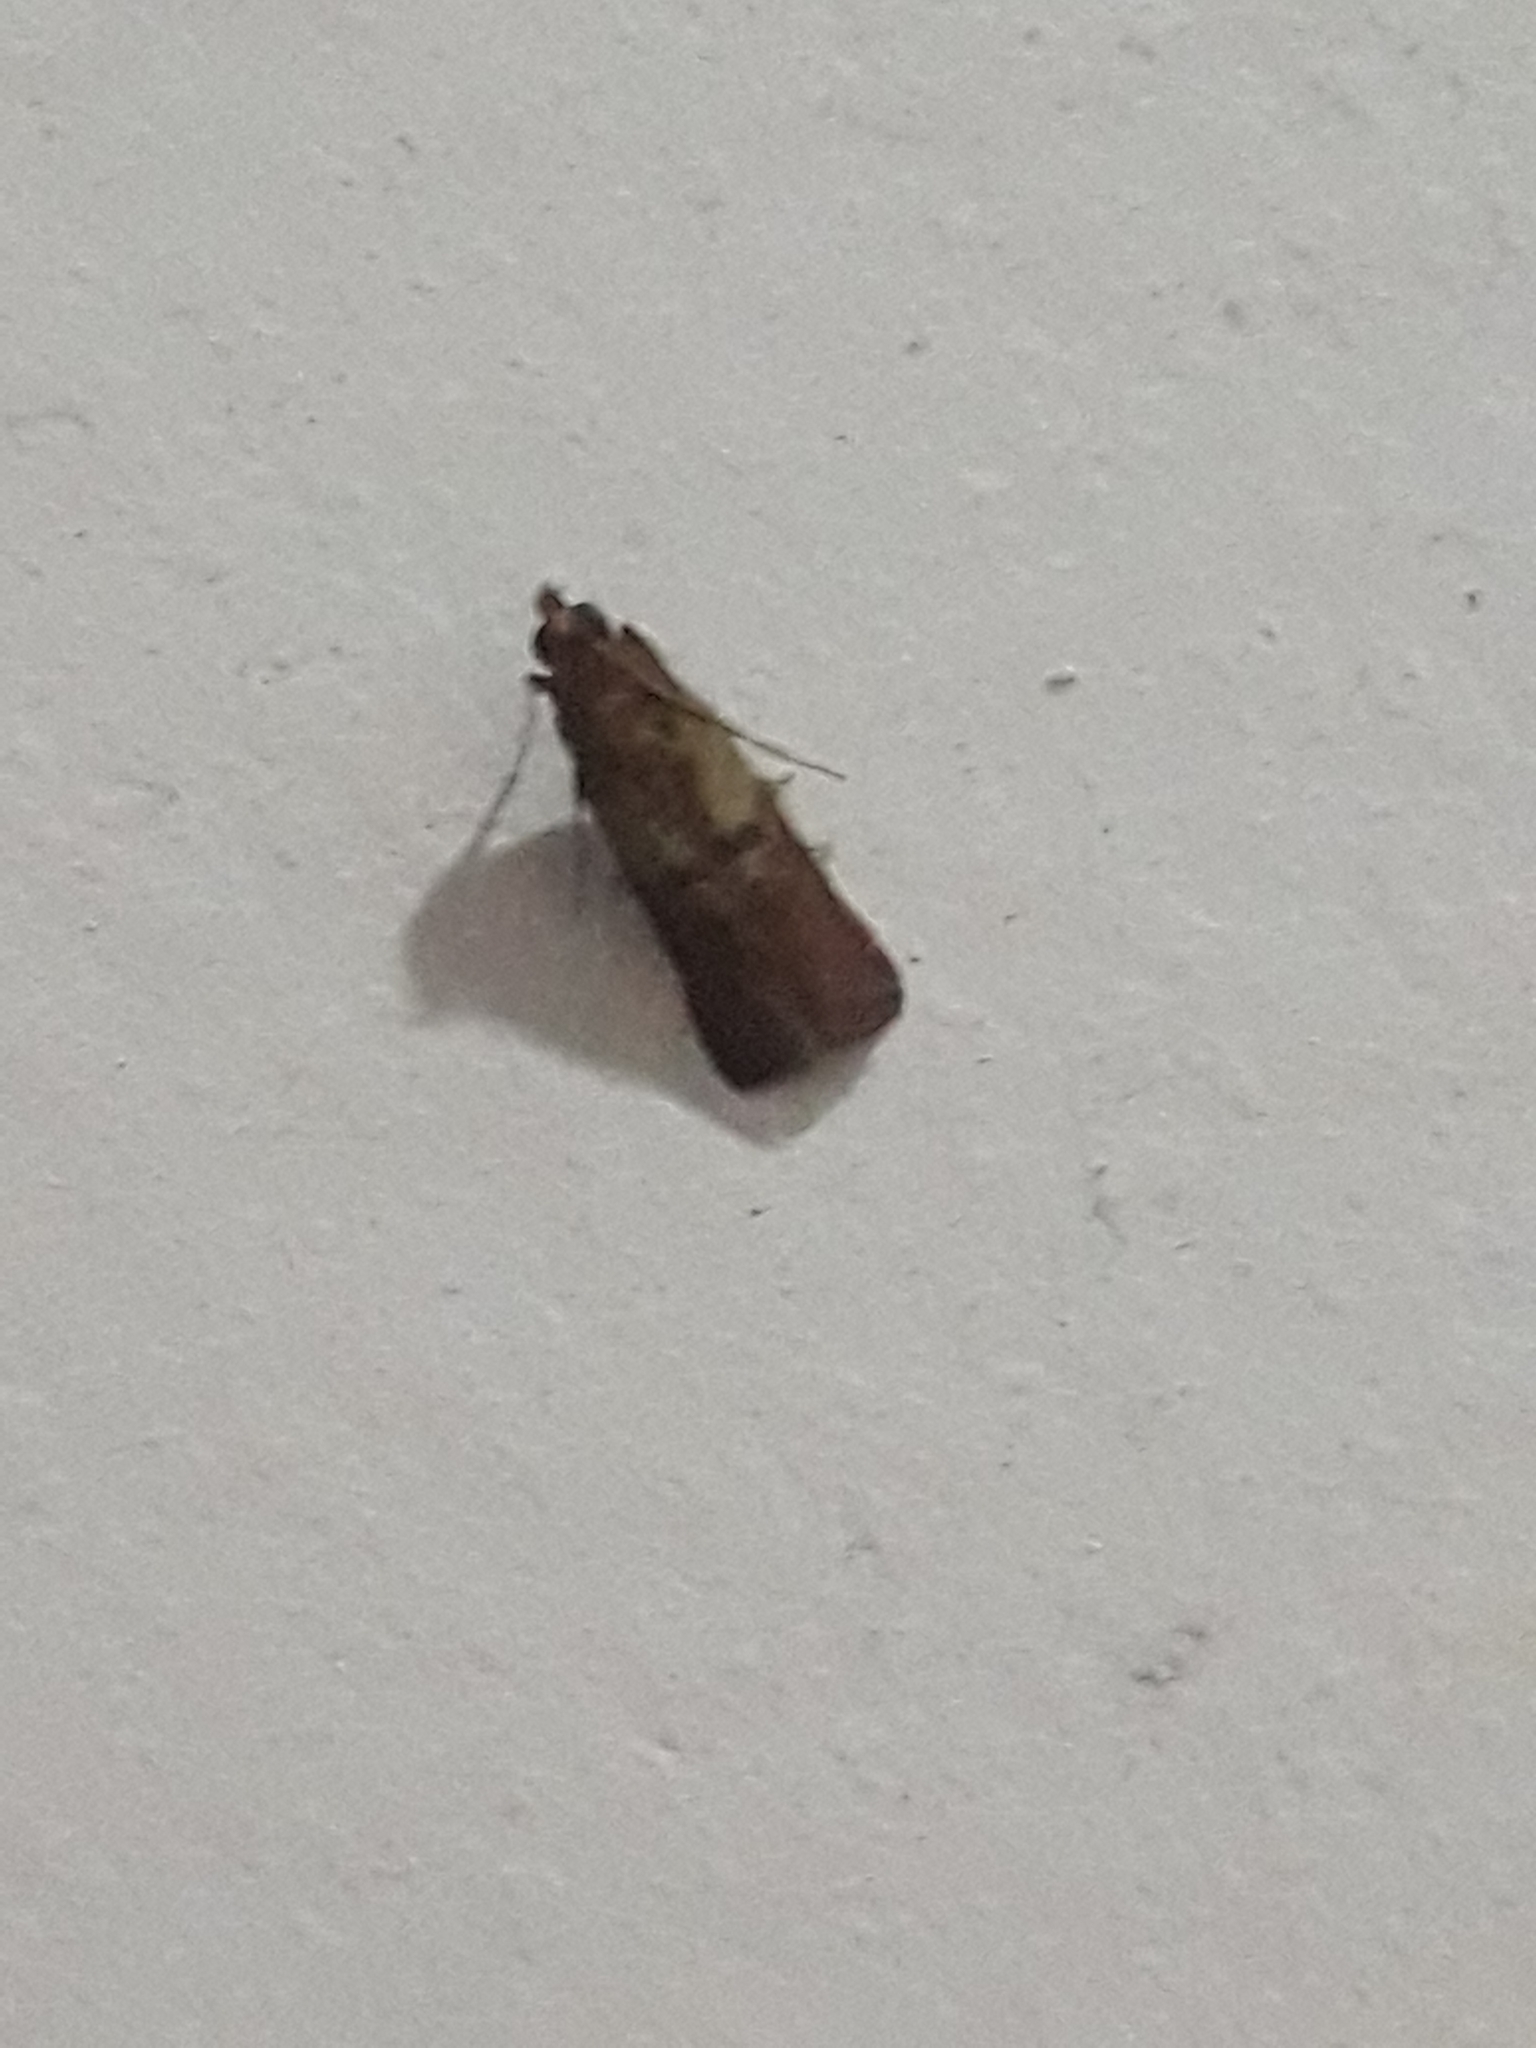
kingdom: Animalia
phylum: Arthropoda
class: Insecta
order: Lepidoptera
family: Pyralidae
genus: Plodia
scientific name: Plodia interpunctella
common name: Indian meal moth
